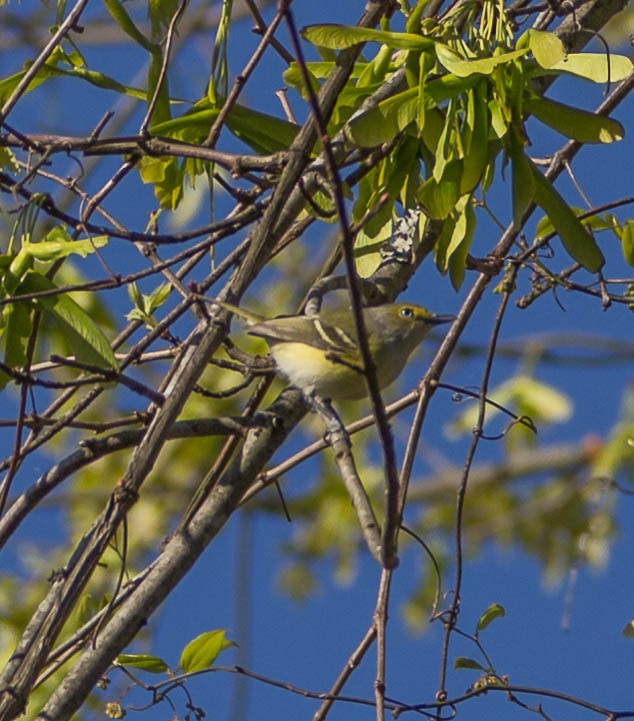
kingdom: Animalia
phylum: Chordata
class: Aves
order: Passeriformes
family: Vireonidae
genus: Vireo
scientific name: Vireo griseus
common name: White-eyed vireo
